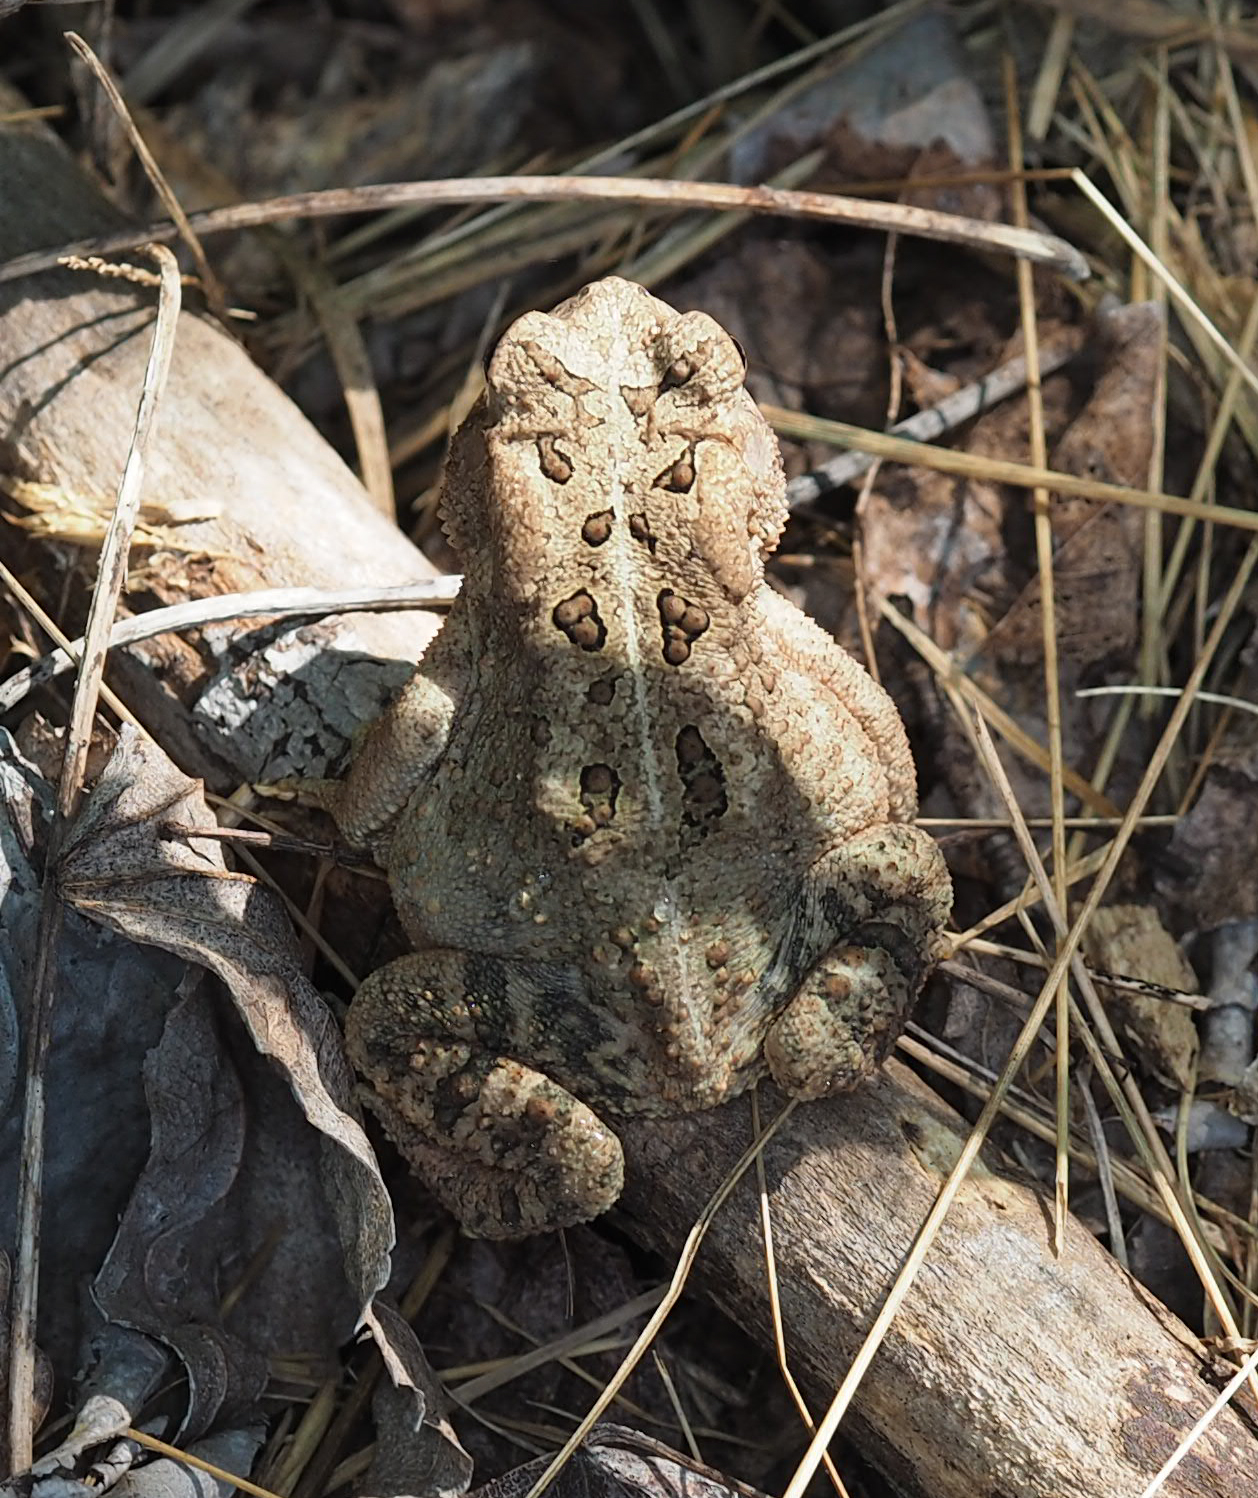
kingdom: Animalia
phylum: Chordata
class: Amphibia
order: Anura
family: Bufonidae
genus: Anaxyrus
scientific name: Anaxyrus americanus
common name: American toad
